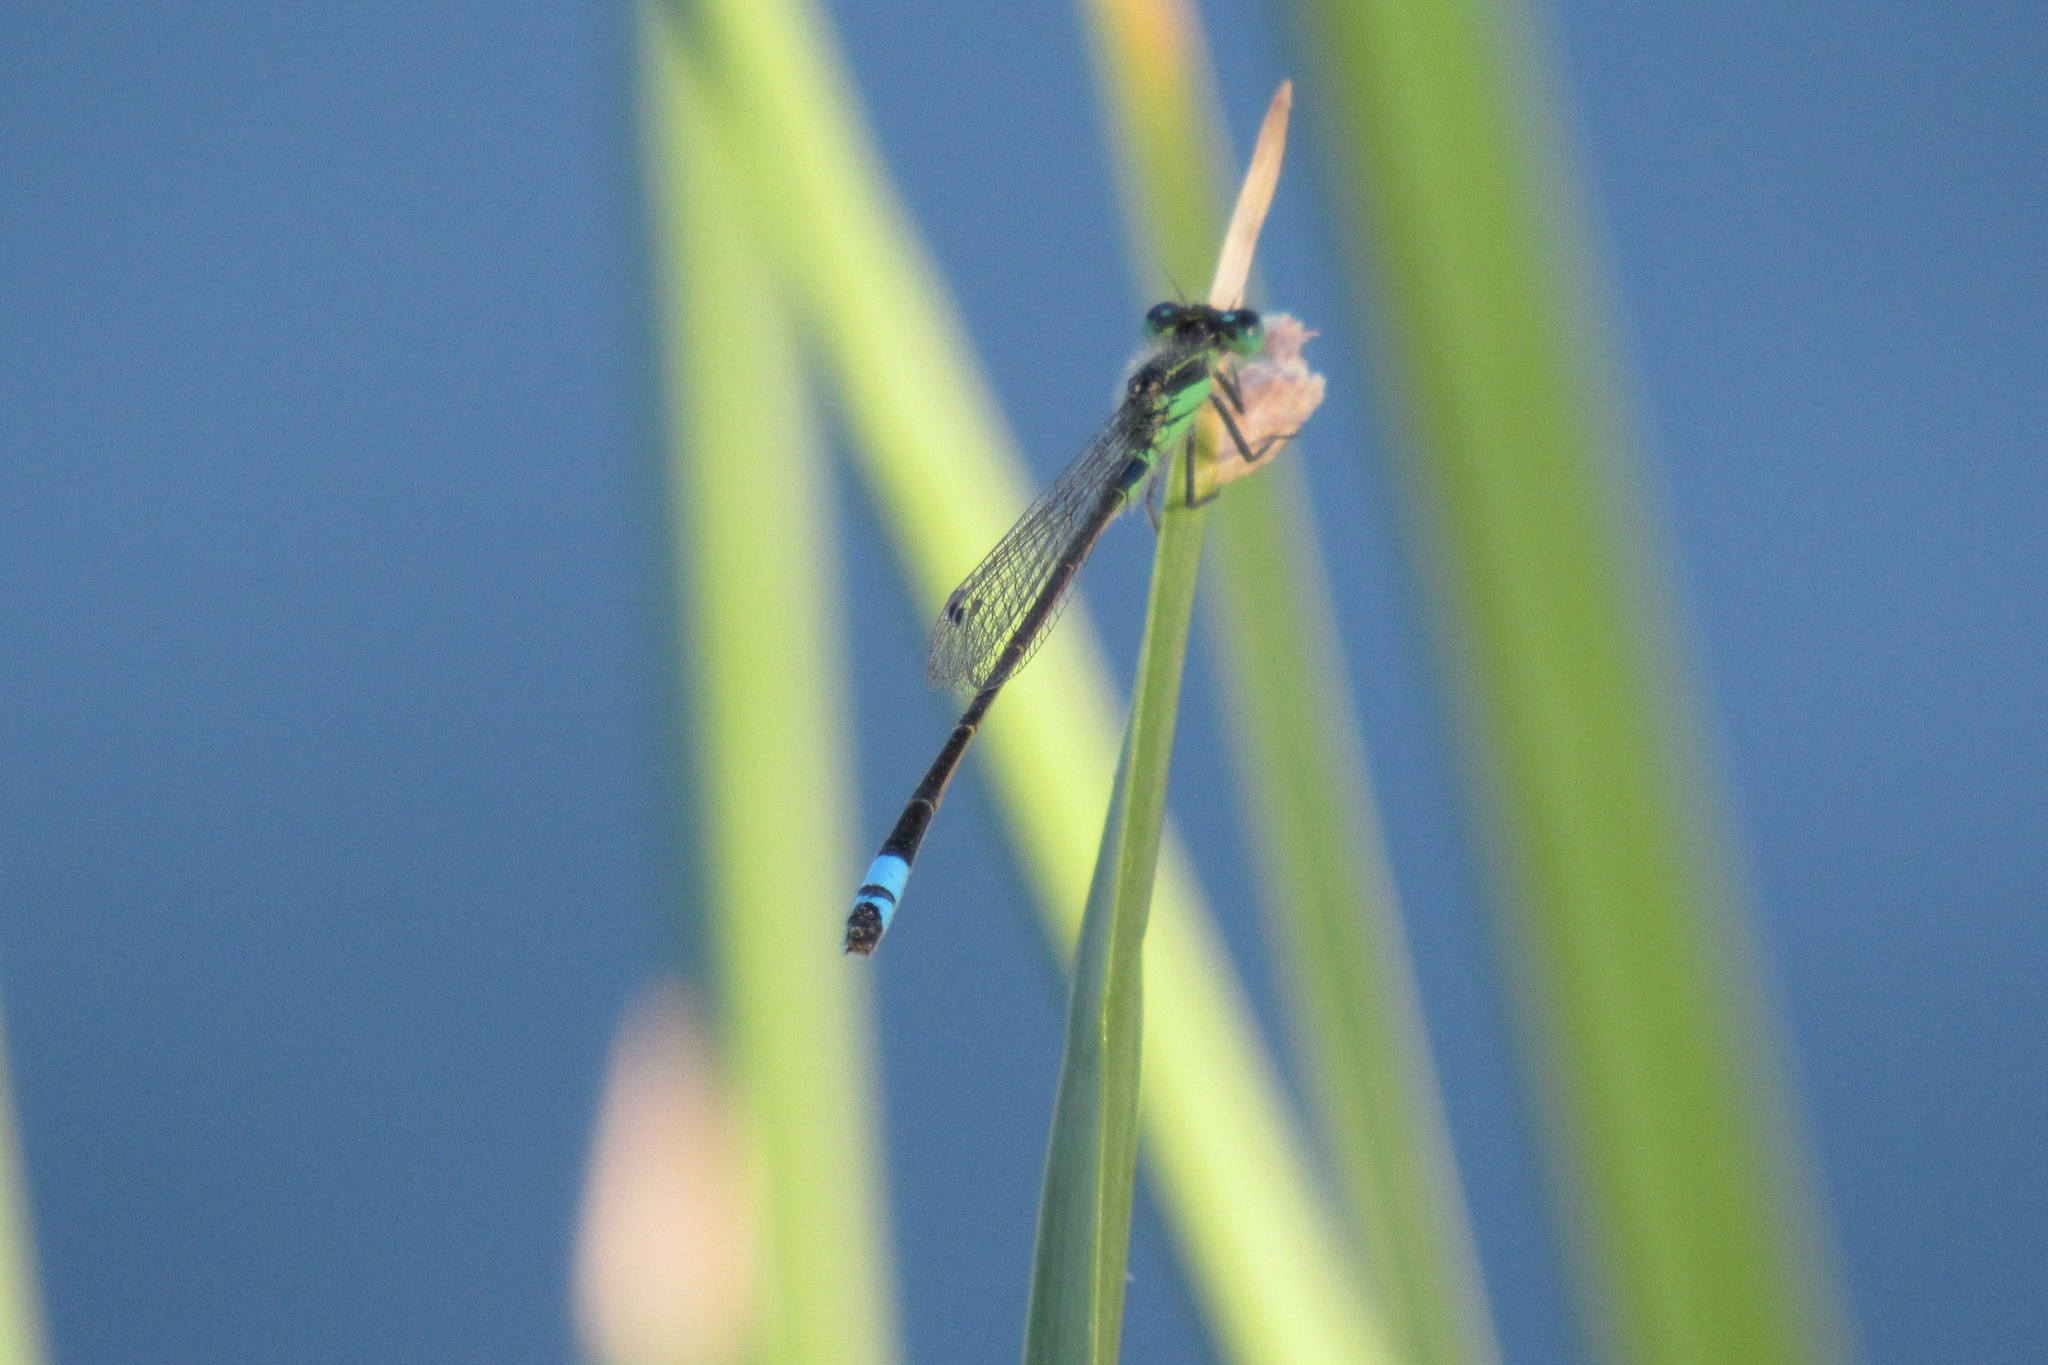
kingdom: Animalia
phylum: Arthropoda
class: Insecta
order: Odonata
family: Coenagrionidae
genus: Ischnura
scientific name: Ischnura ramburii
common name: Rambur's forktail
